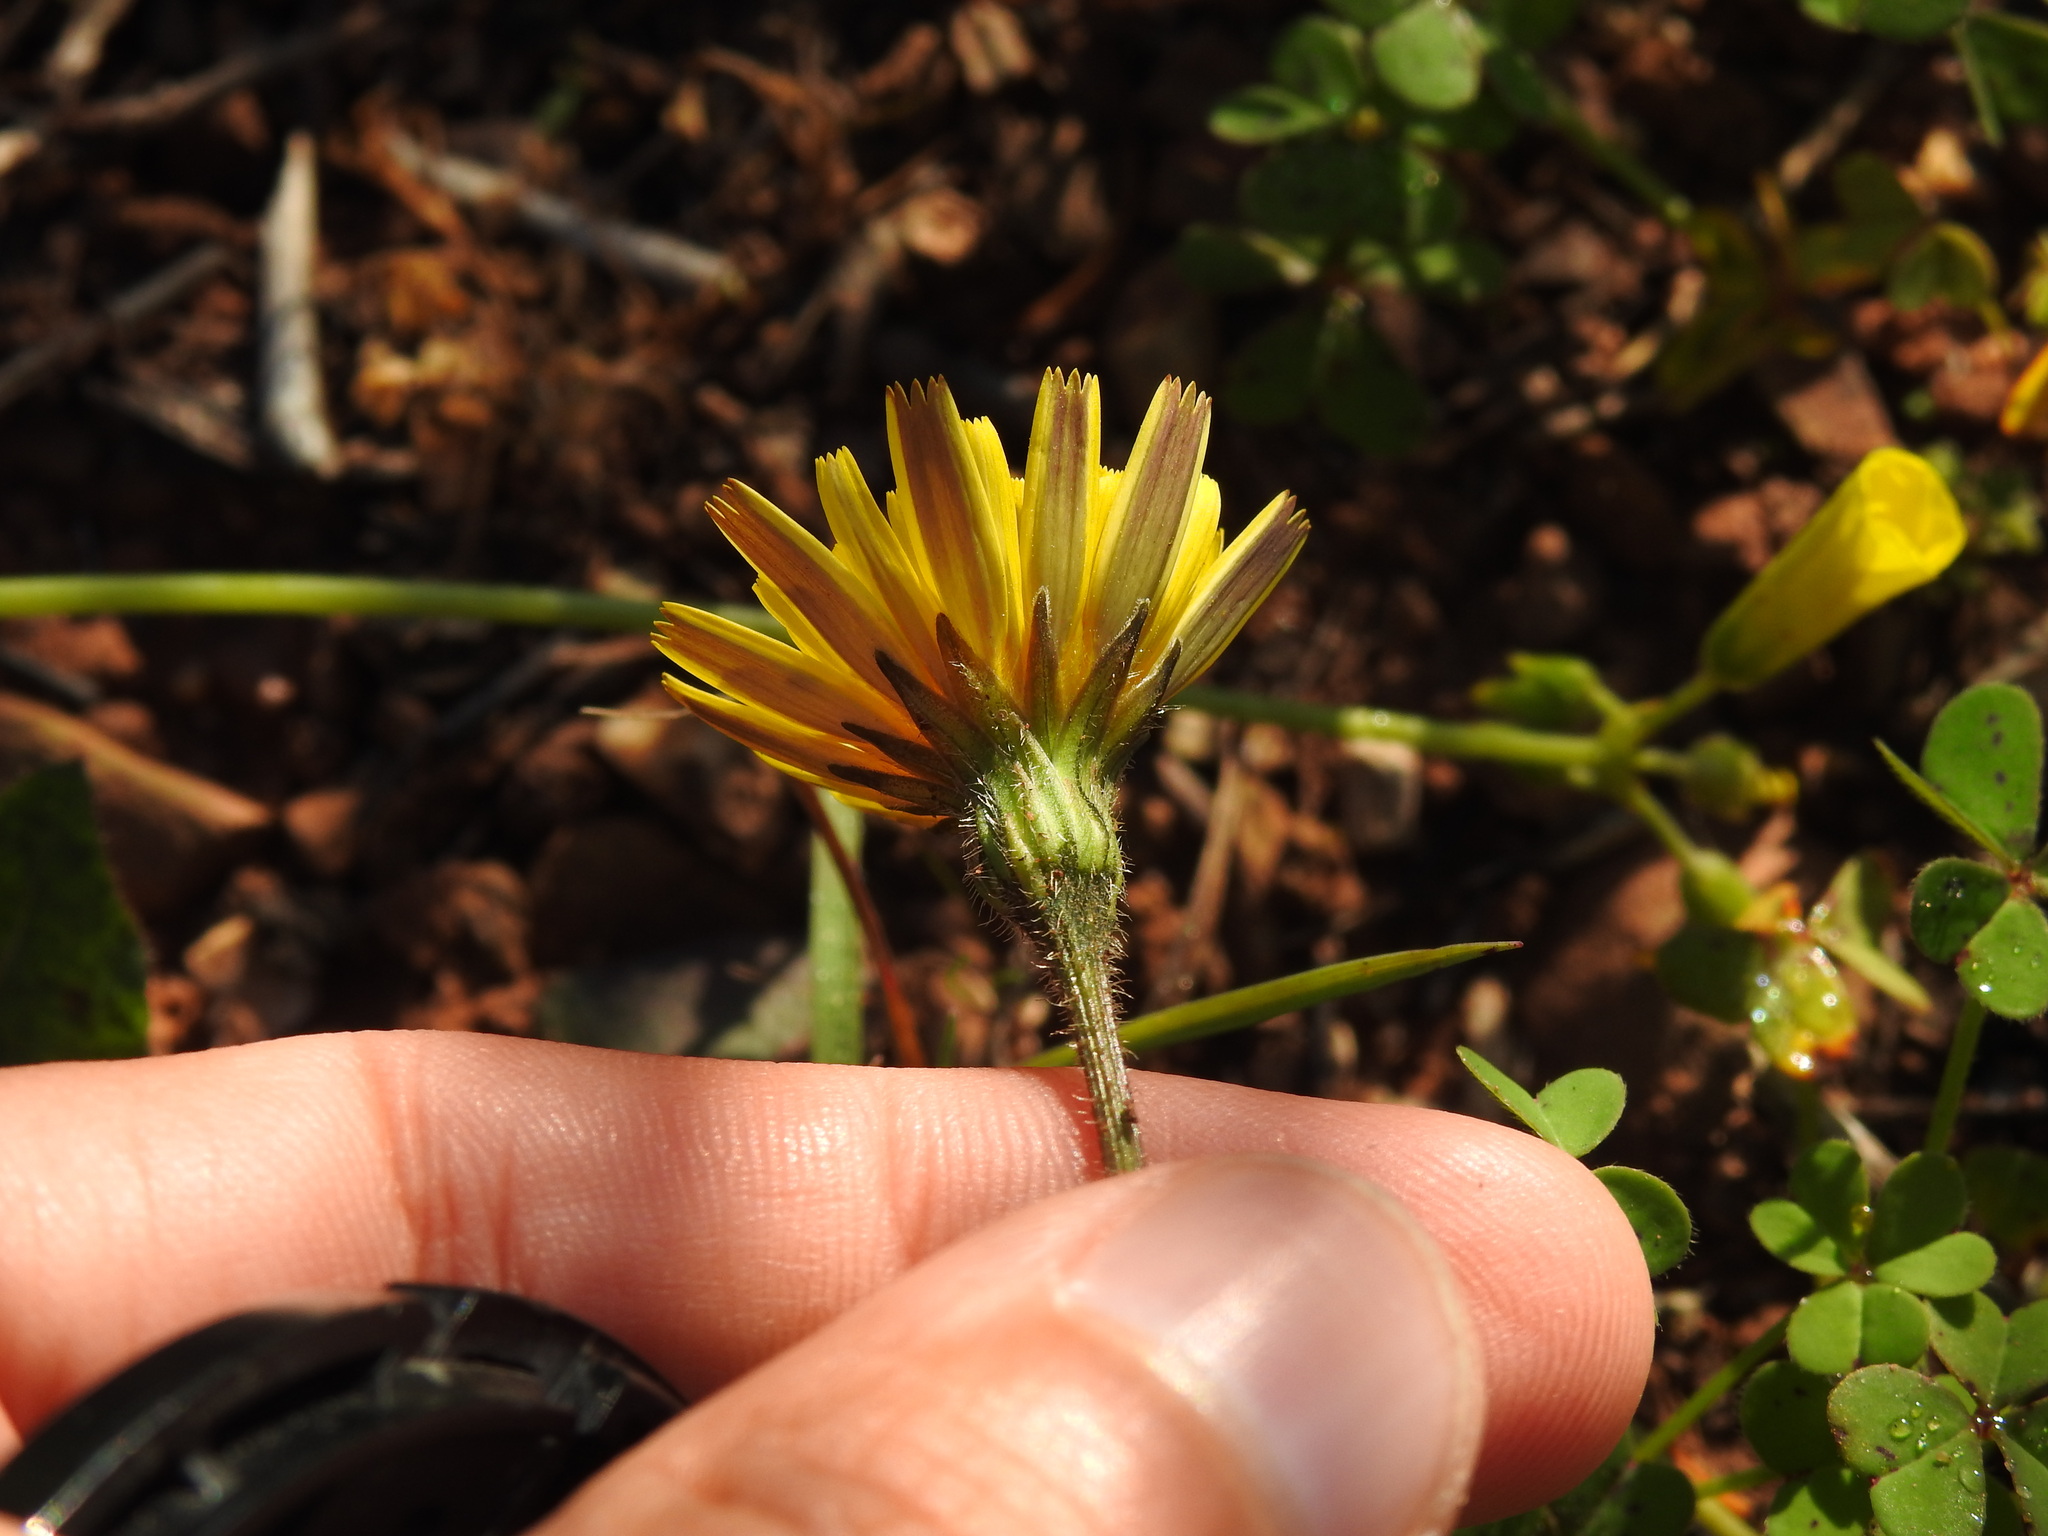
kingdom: Plantae
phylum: Tracheophyta
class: Magnoliopsida
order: Asterales
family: Asteraceae
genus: Leontodon
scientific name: Leontodon tuberosus
